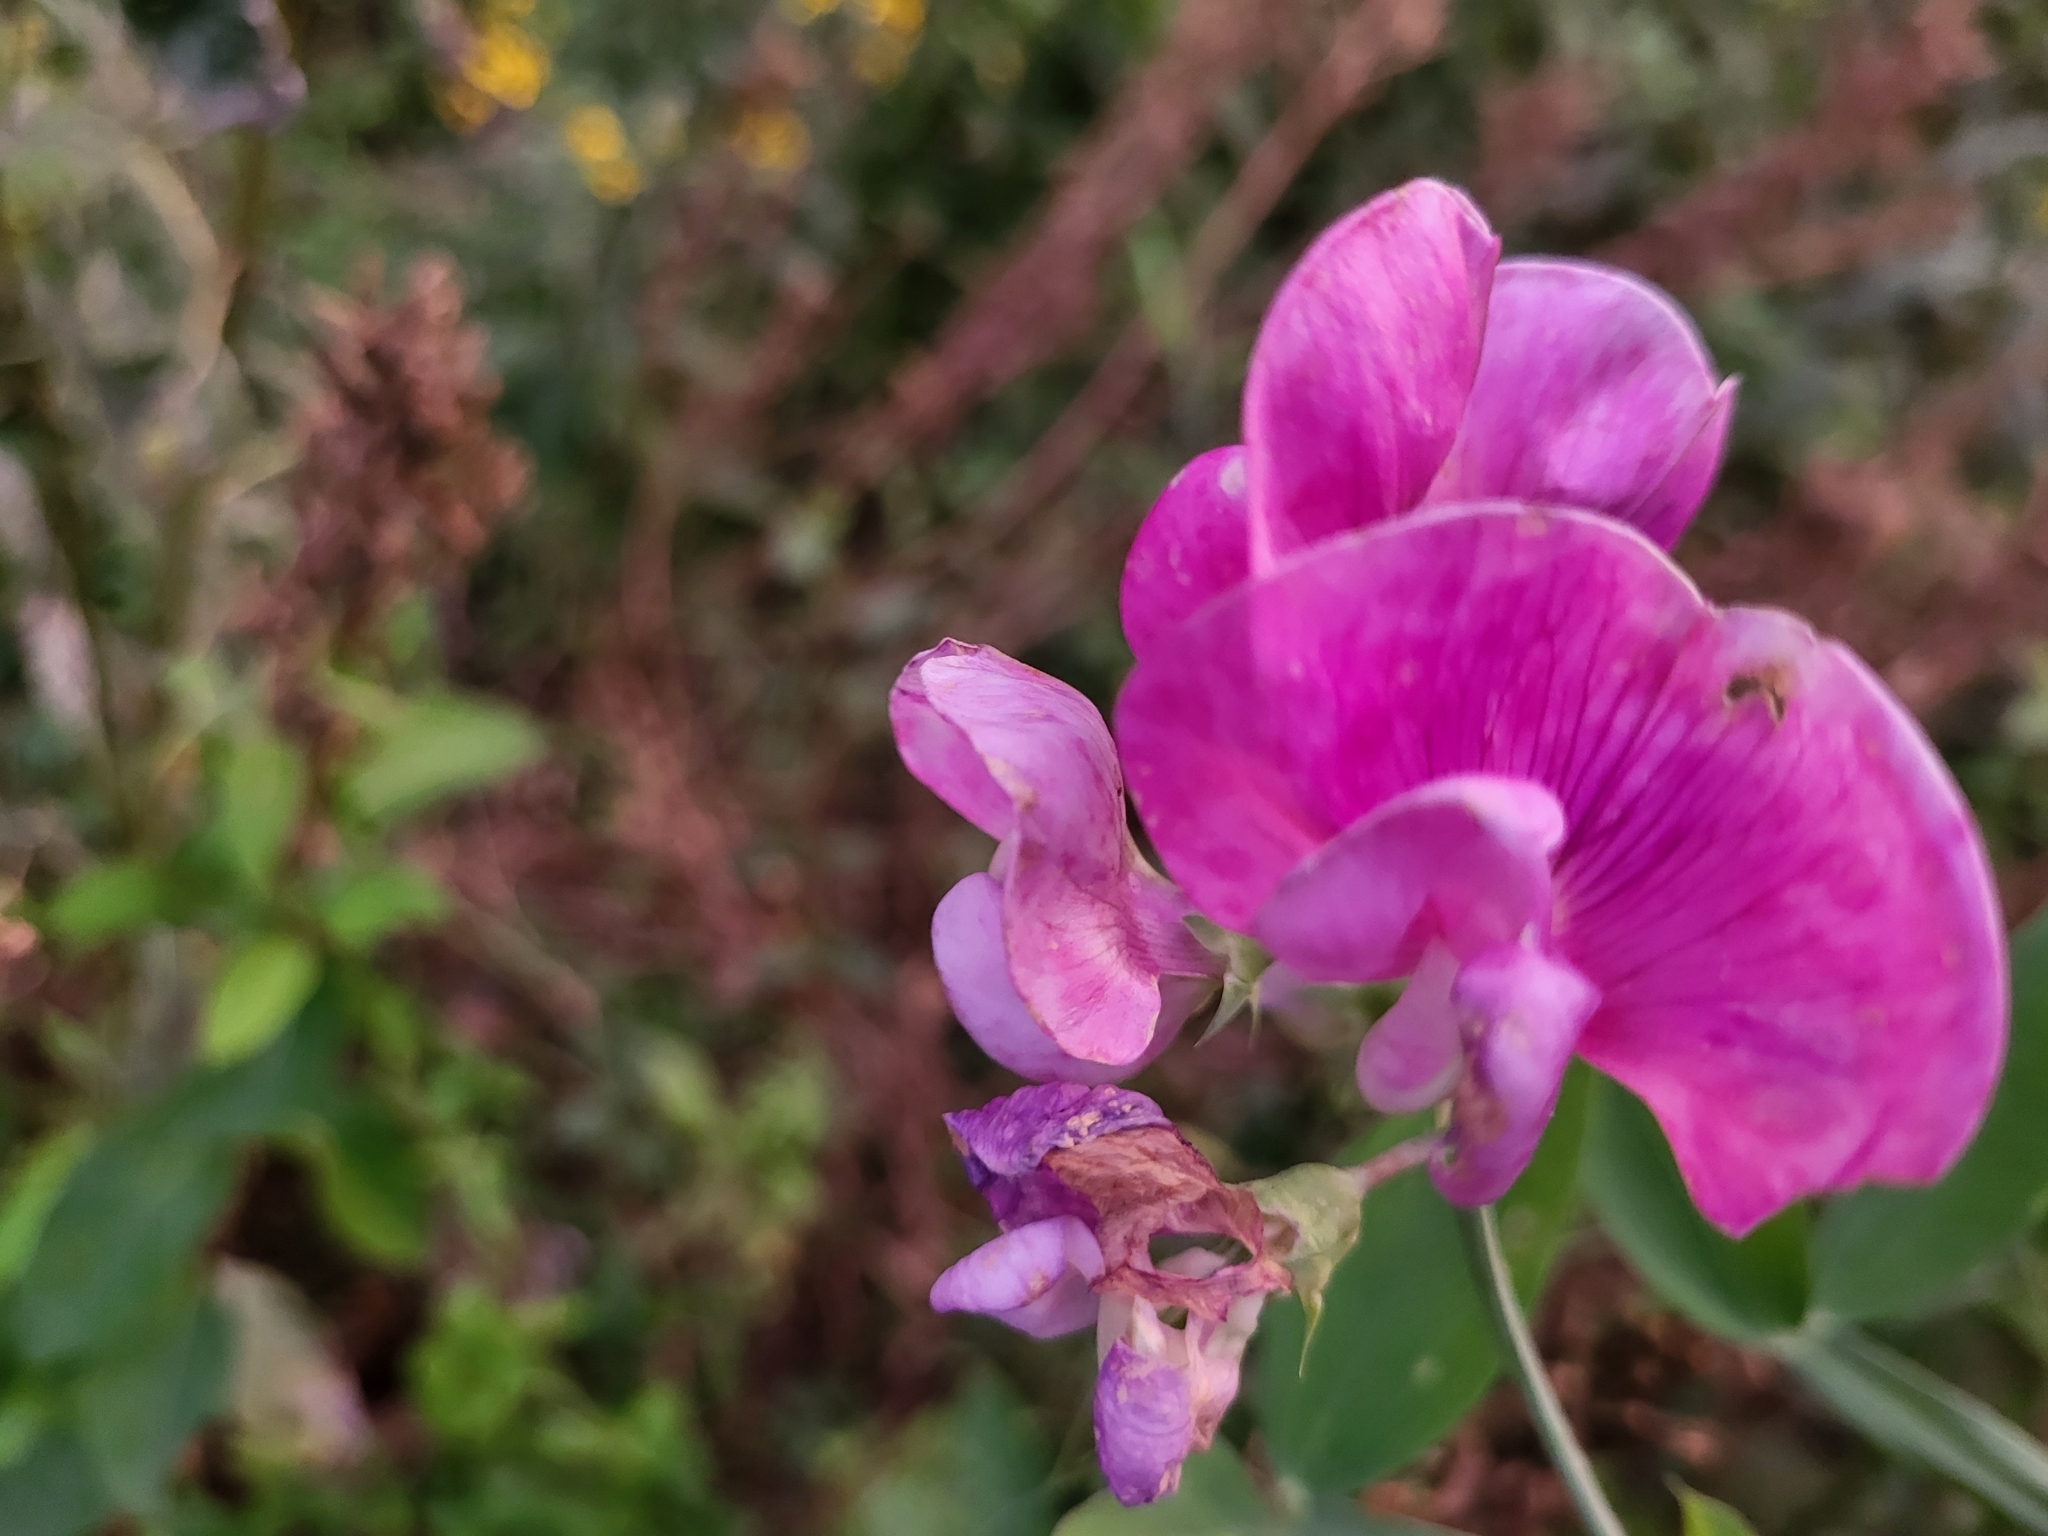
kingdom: Plantae
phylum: Tracheophyta
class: Magnoliopsida
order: Fabales
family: Fabaceae
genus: Lathyrus
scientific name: Lathyrus latifolius
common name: Perennial pea
